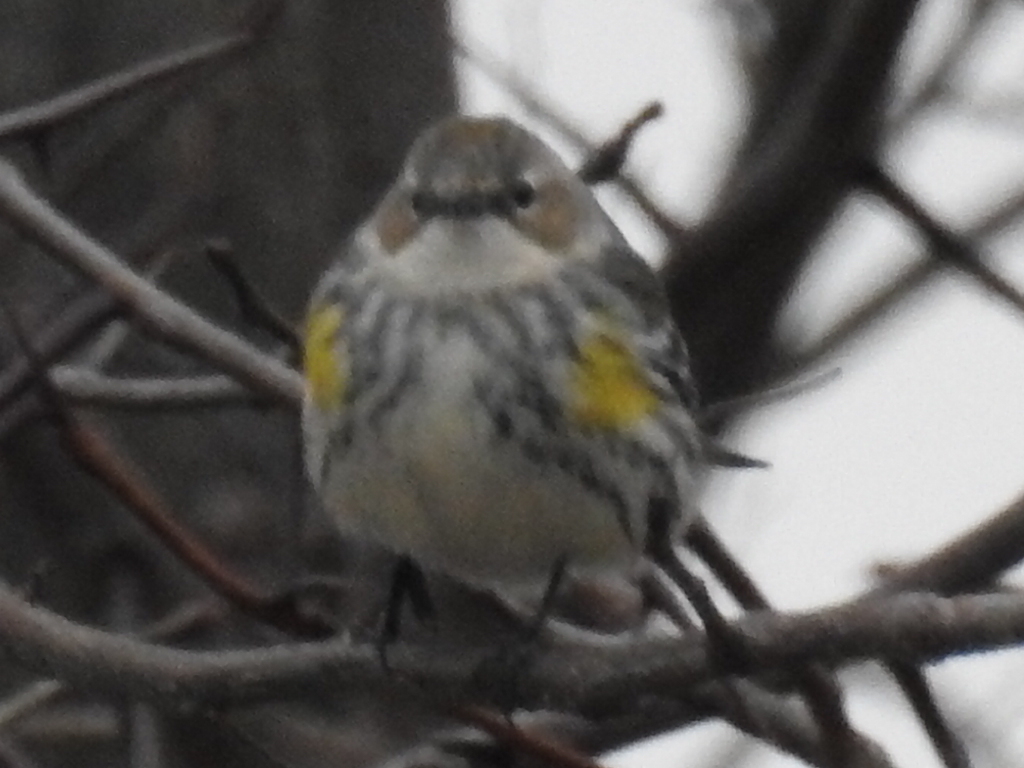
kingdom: Animalia
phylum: Chordata
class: Aves
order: Passeriformes
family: Parulidae
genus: Setophaga
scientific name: Setophaga coronata
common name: Myrtle warbler
